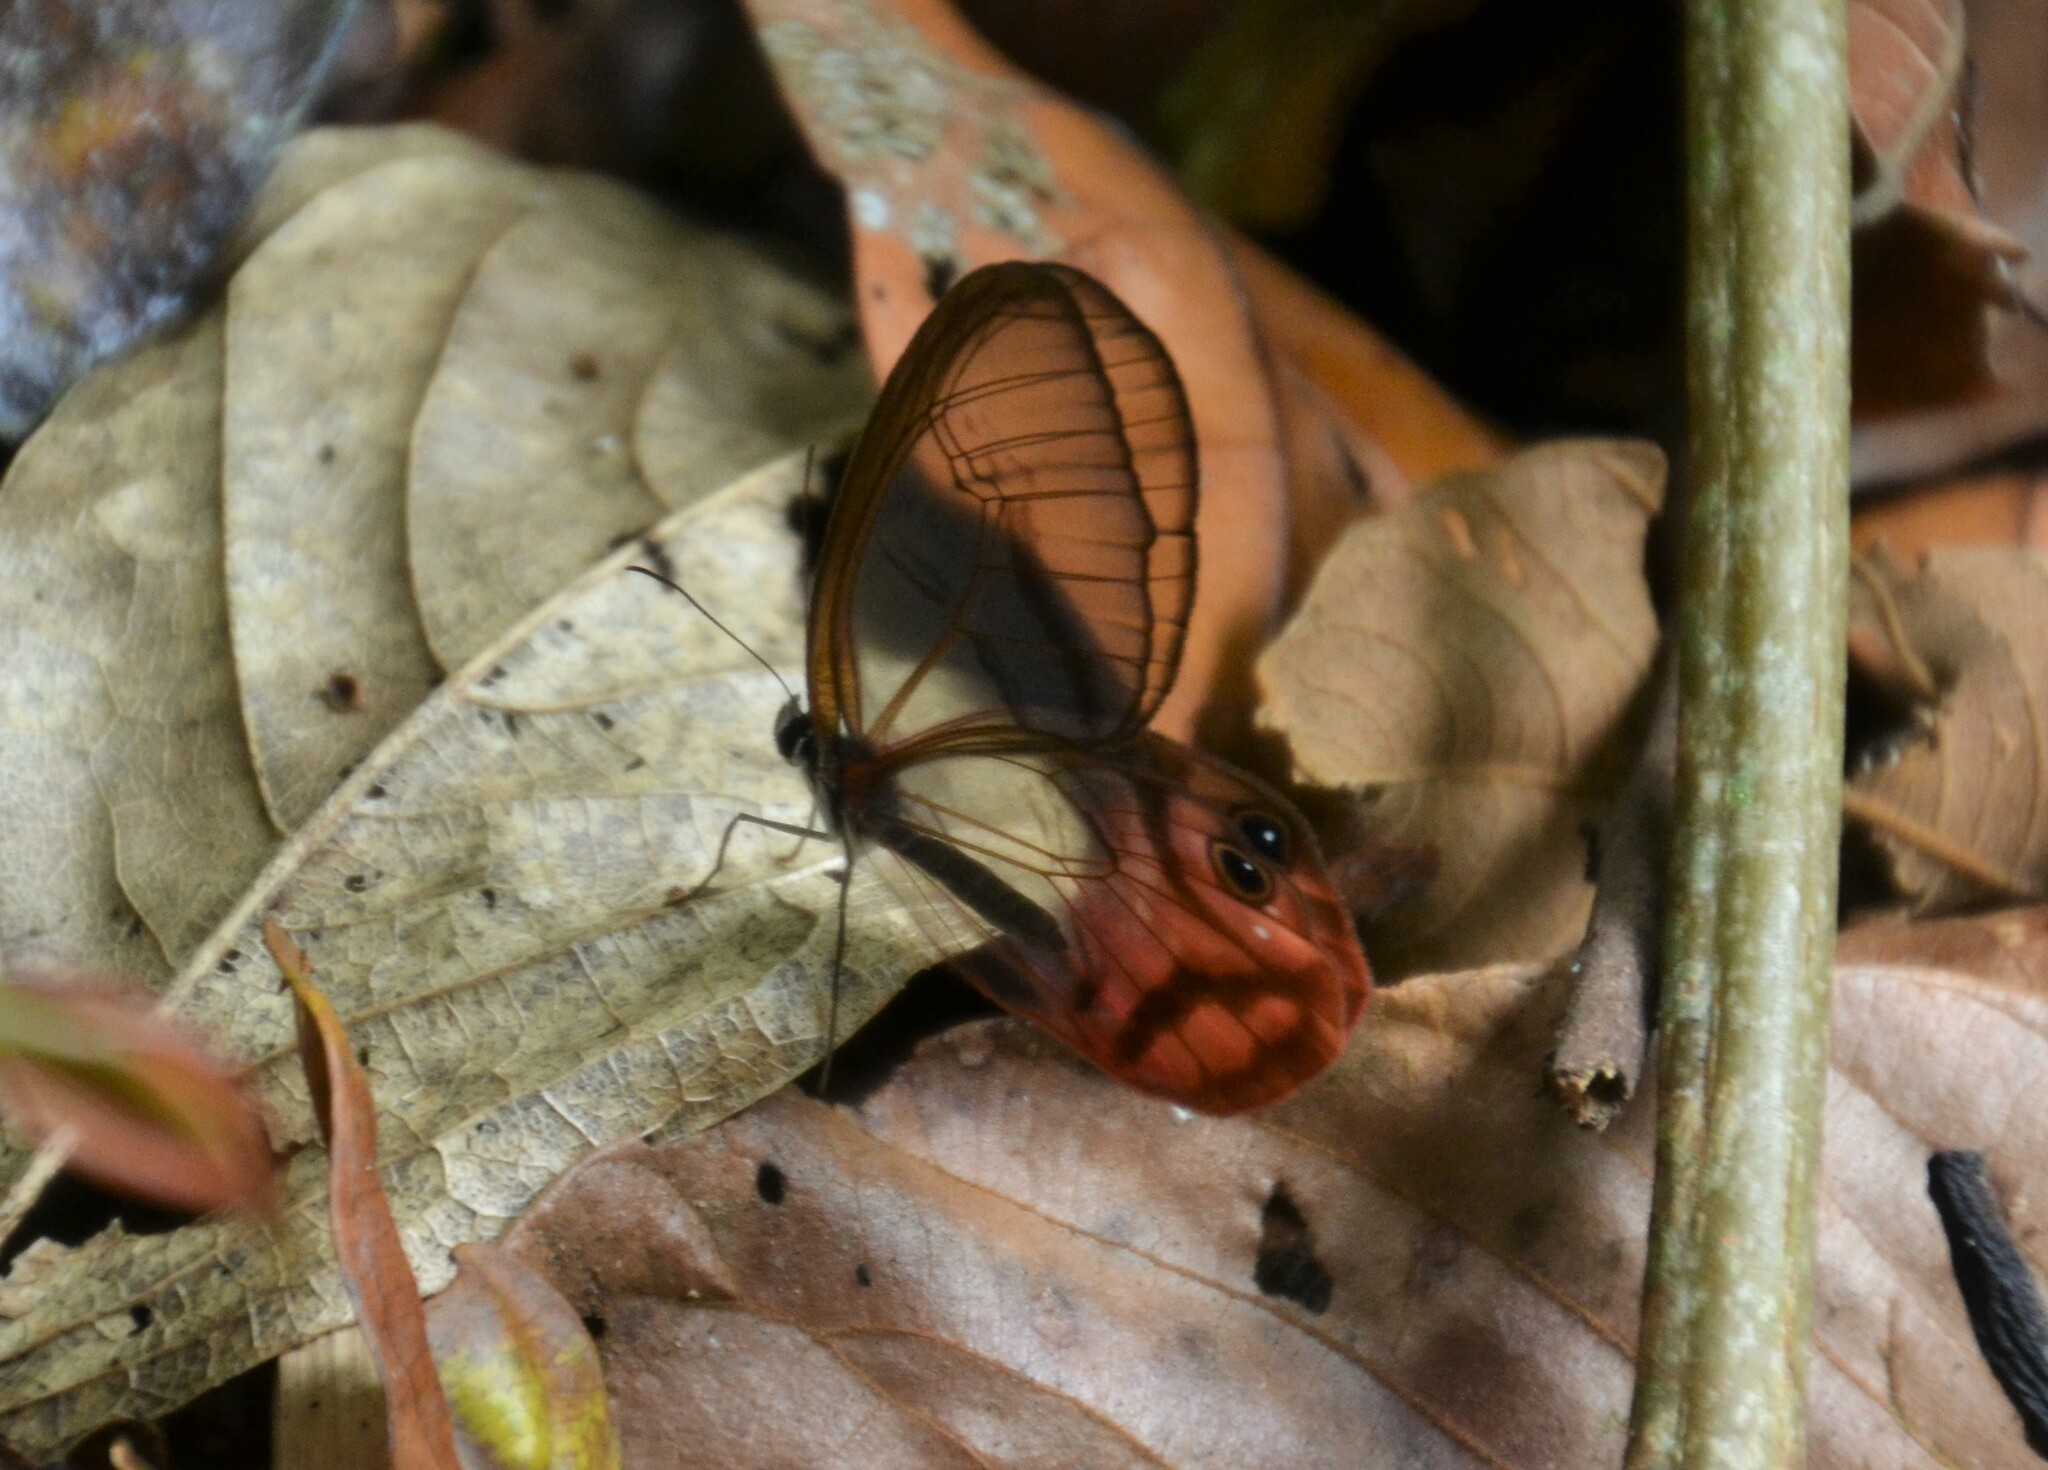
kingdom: Animalia
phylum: Arthropoda
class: Insecta
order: Lepidoptera
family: Nymphalidae
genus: Cithaerias
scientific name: Cithaerias pireta
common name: Rusted clearwing-satyr
